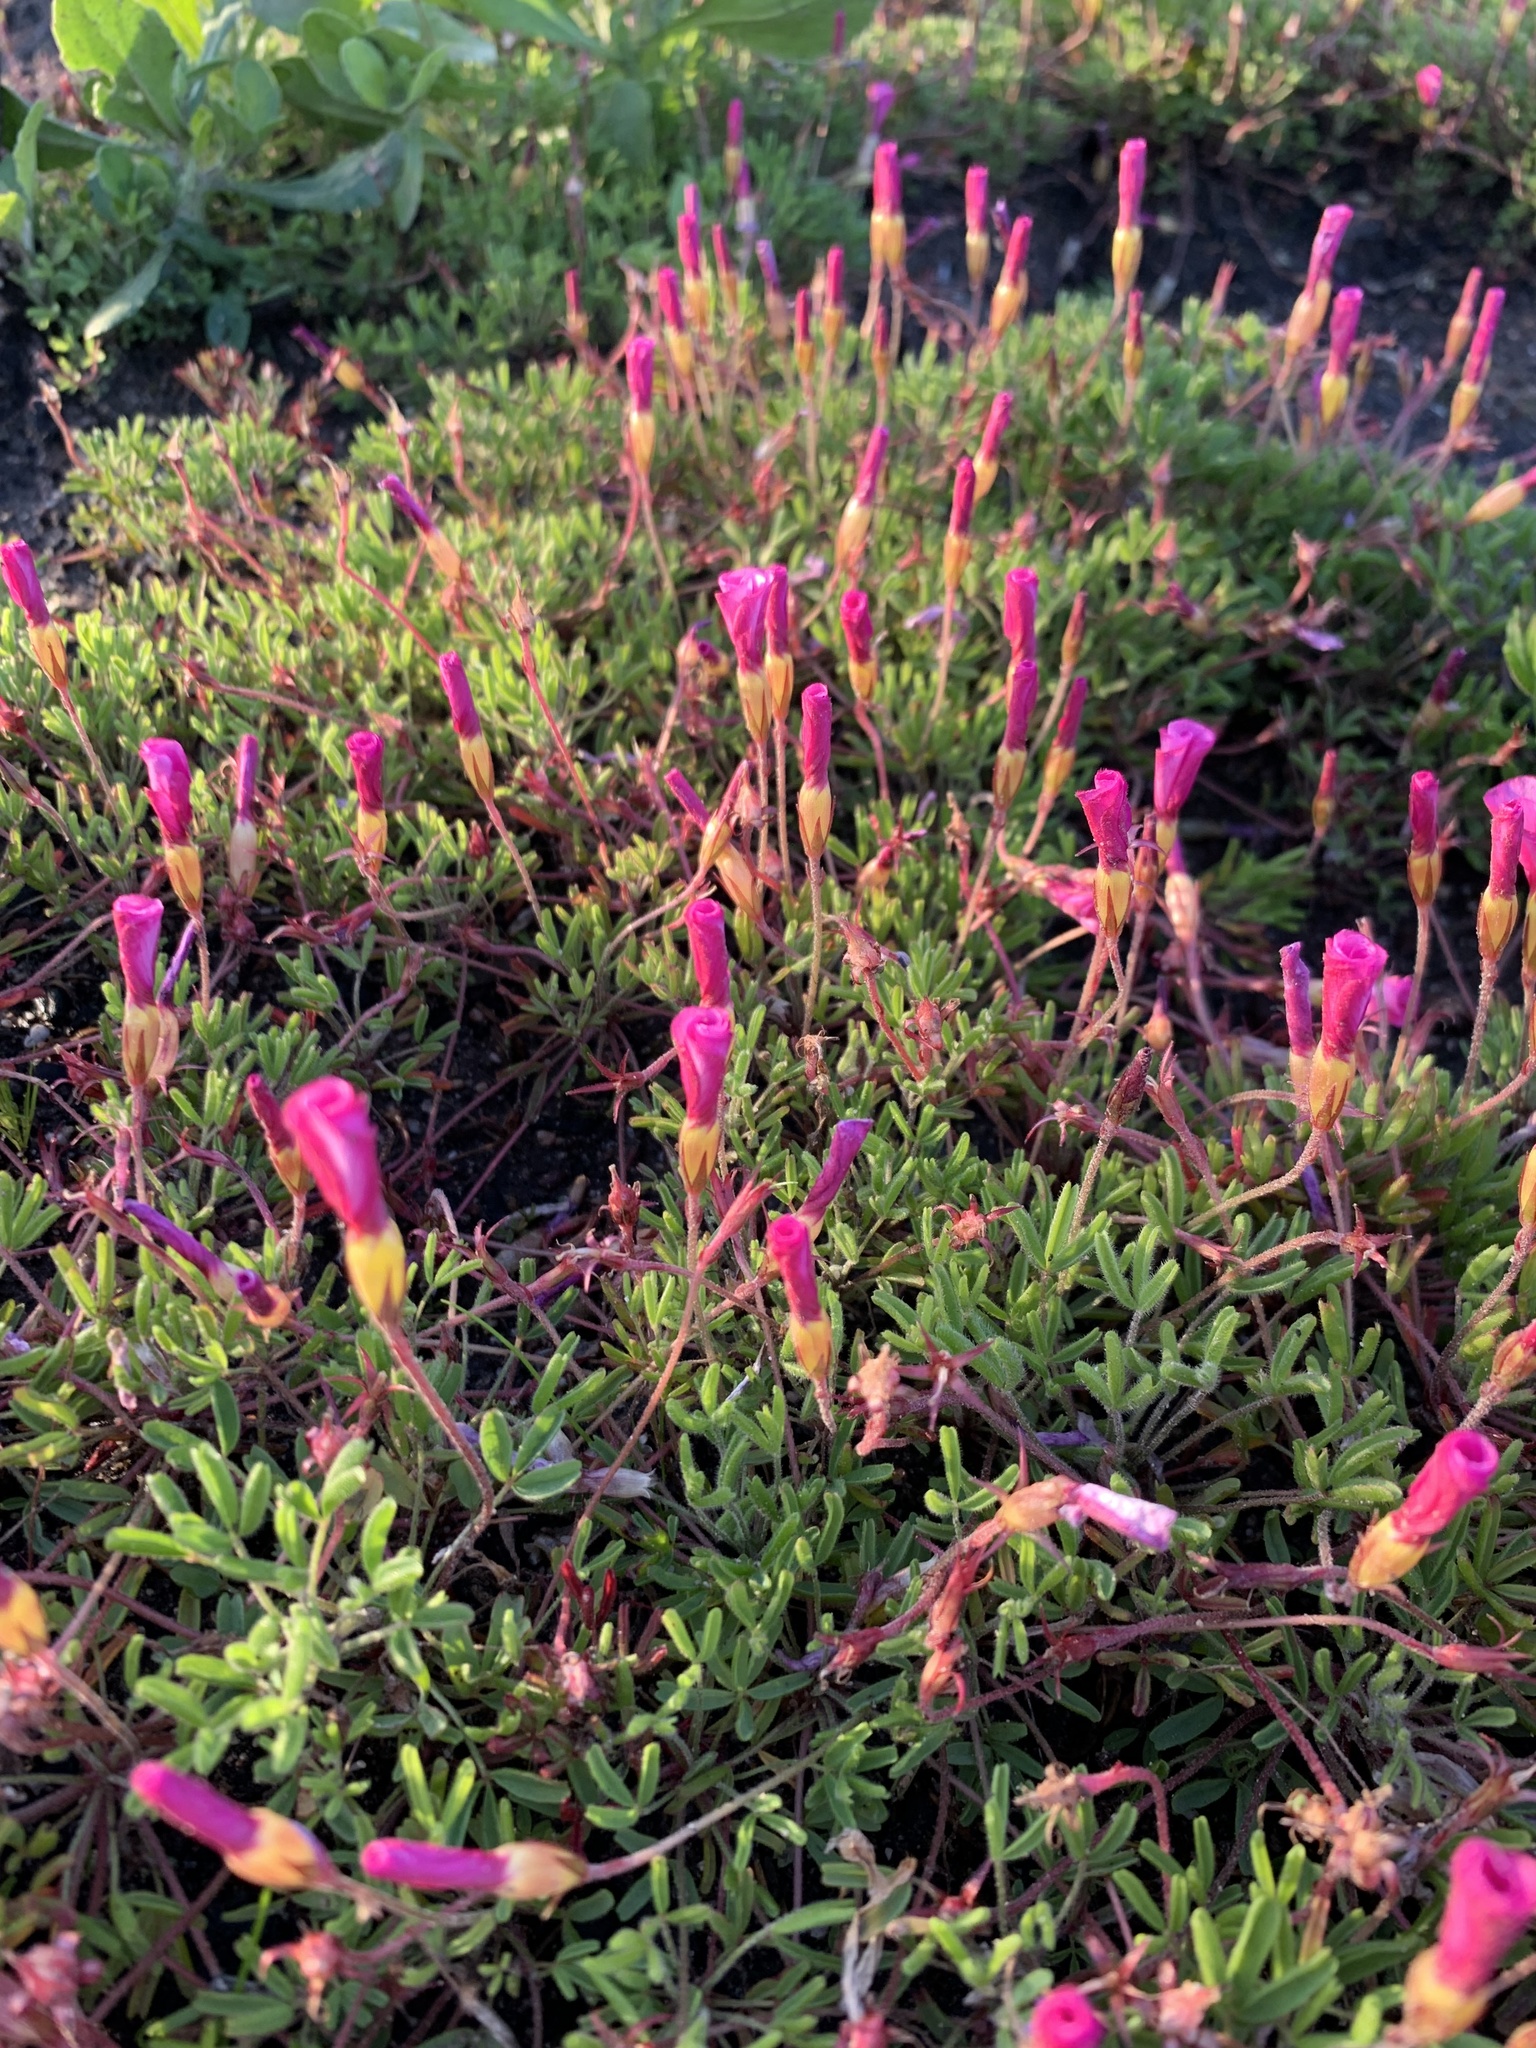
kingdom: Plantae
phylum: Tracheophyta
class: Magnoliopsida
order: Oxalidales
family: Oxalidaceae
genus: Oxalis
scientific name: Oxalis glabra
